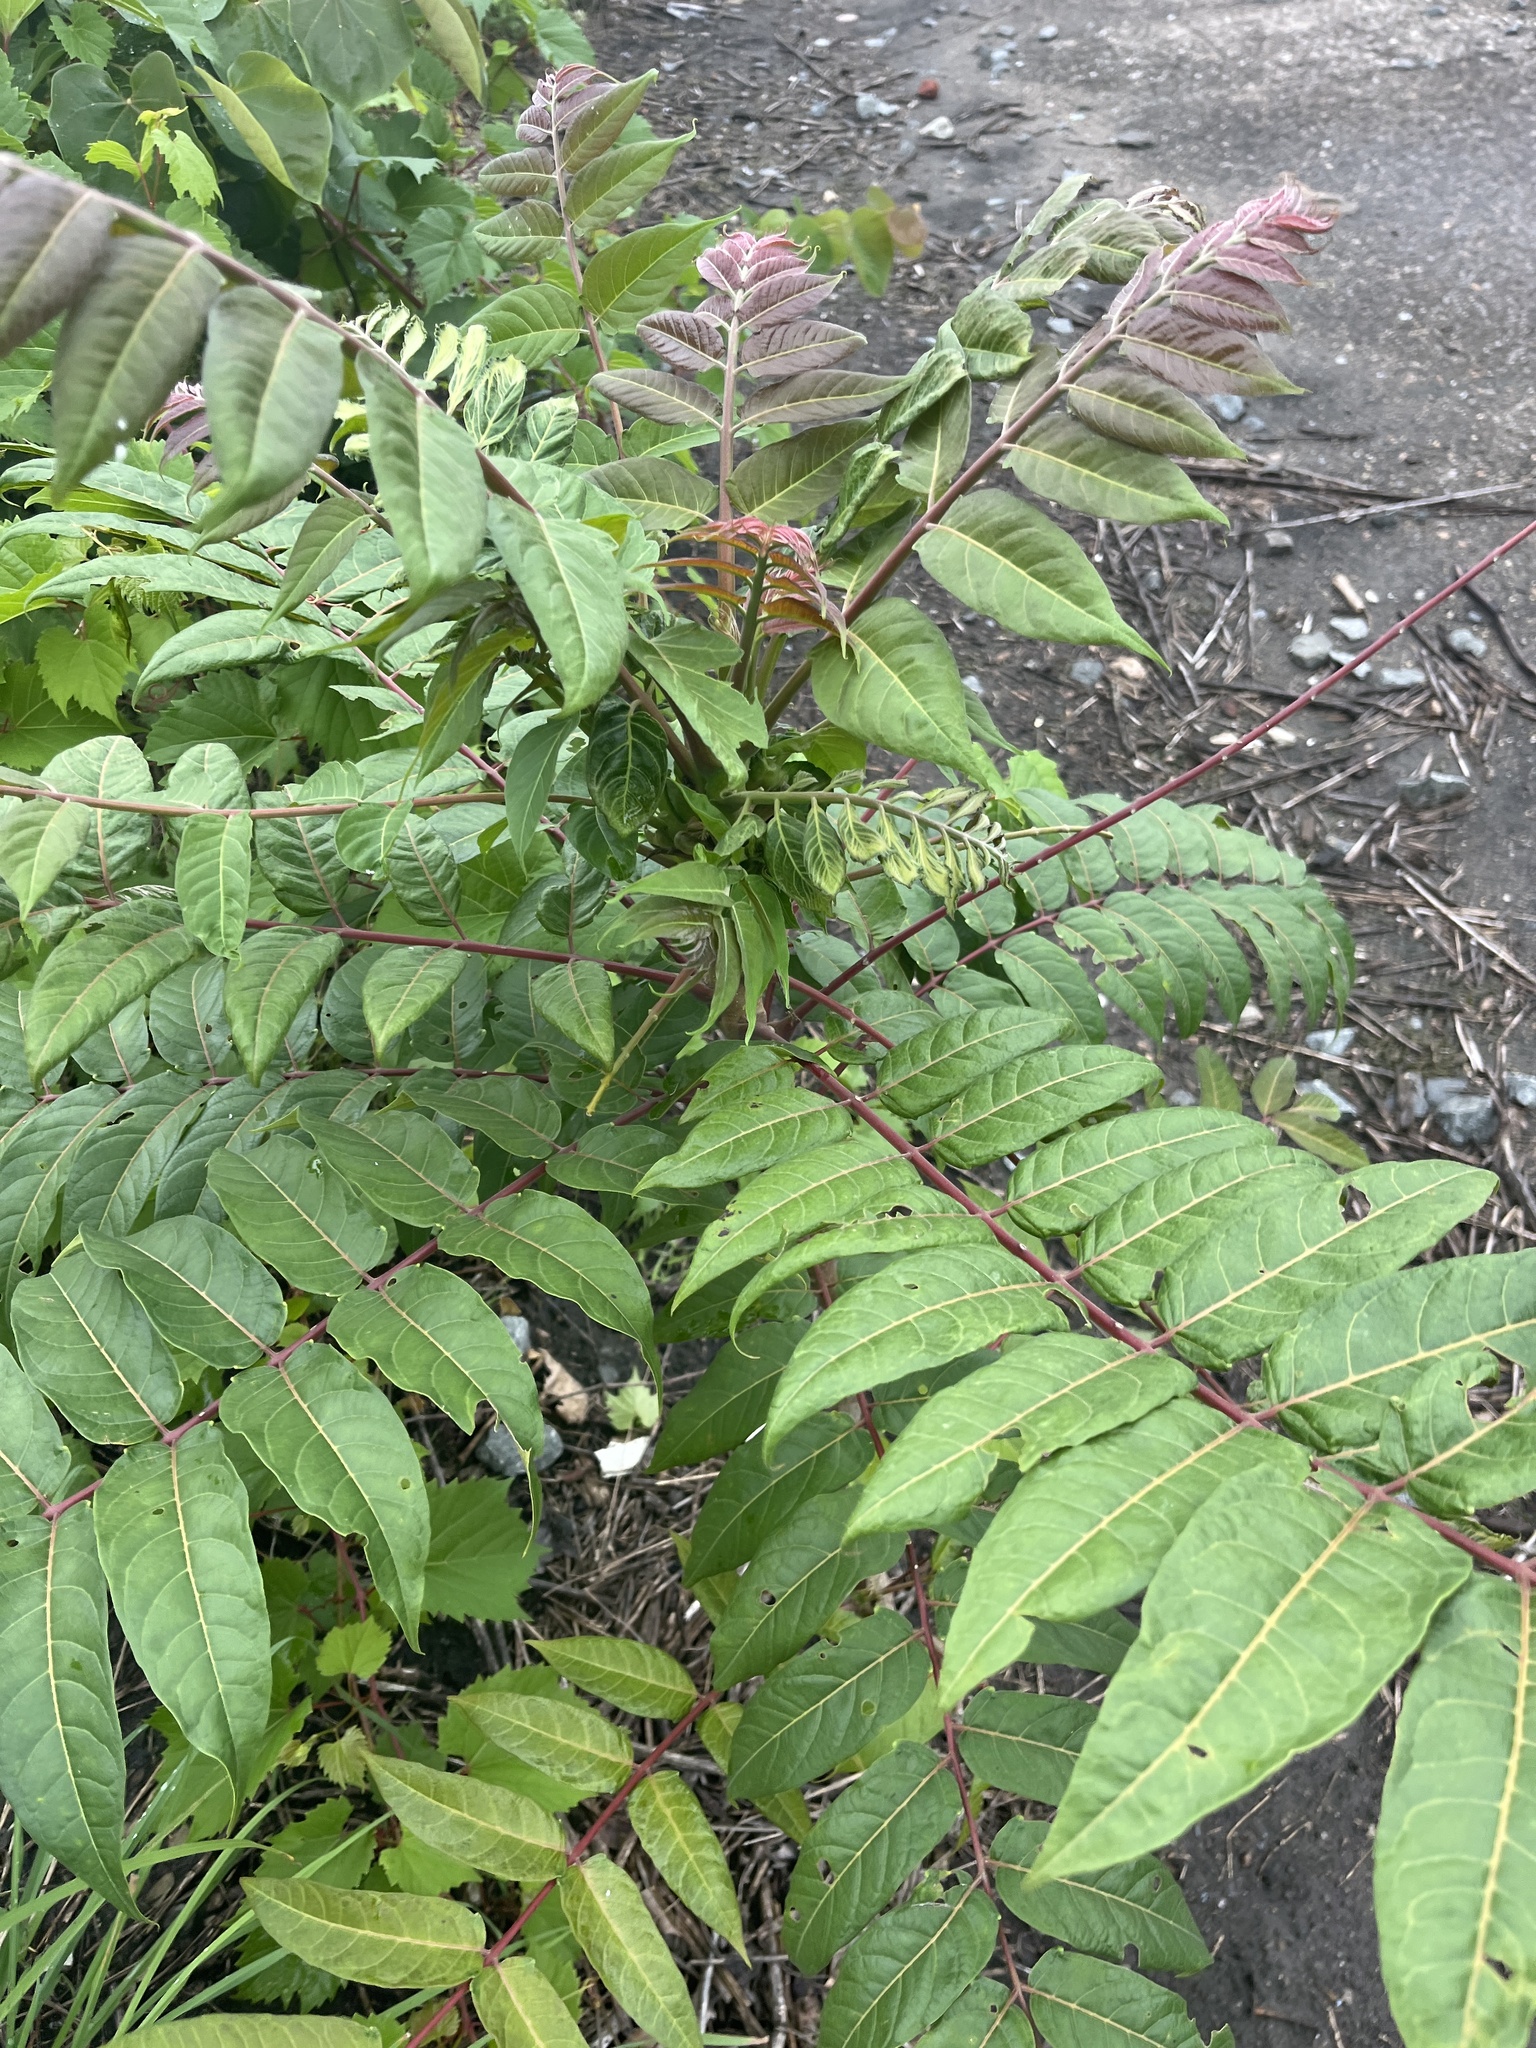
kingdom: Plantae
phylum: Tracheophyta
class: Magnoliopsida
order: Sapindales
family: Simaroubaceae
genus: Ailanthus
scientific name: Ailanthus altissima
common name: Tree-of-heaven
